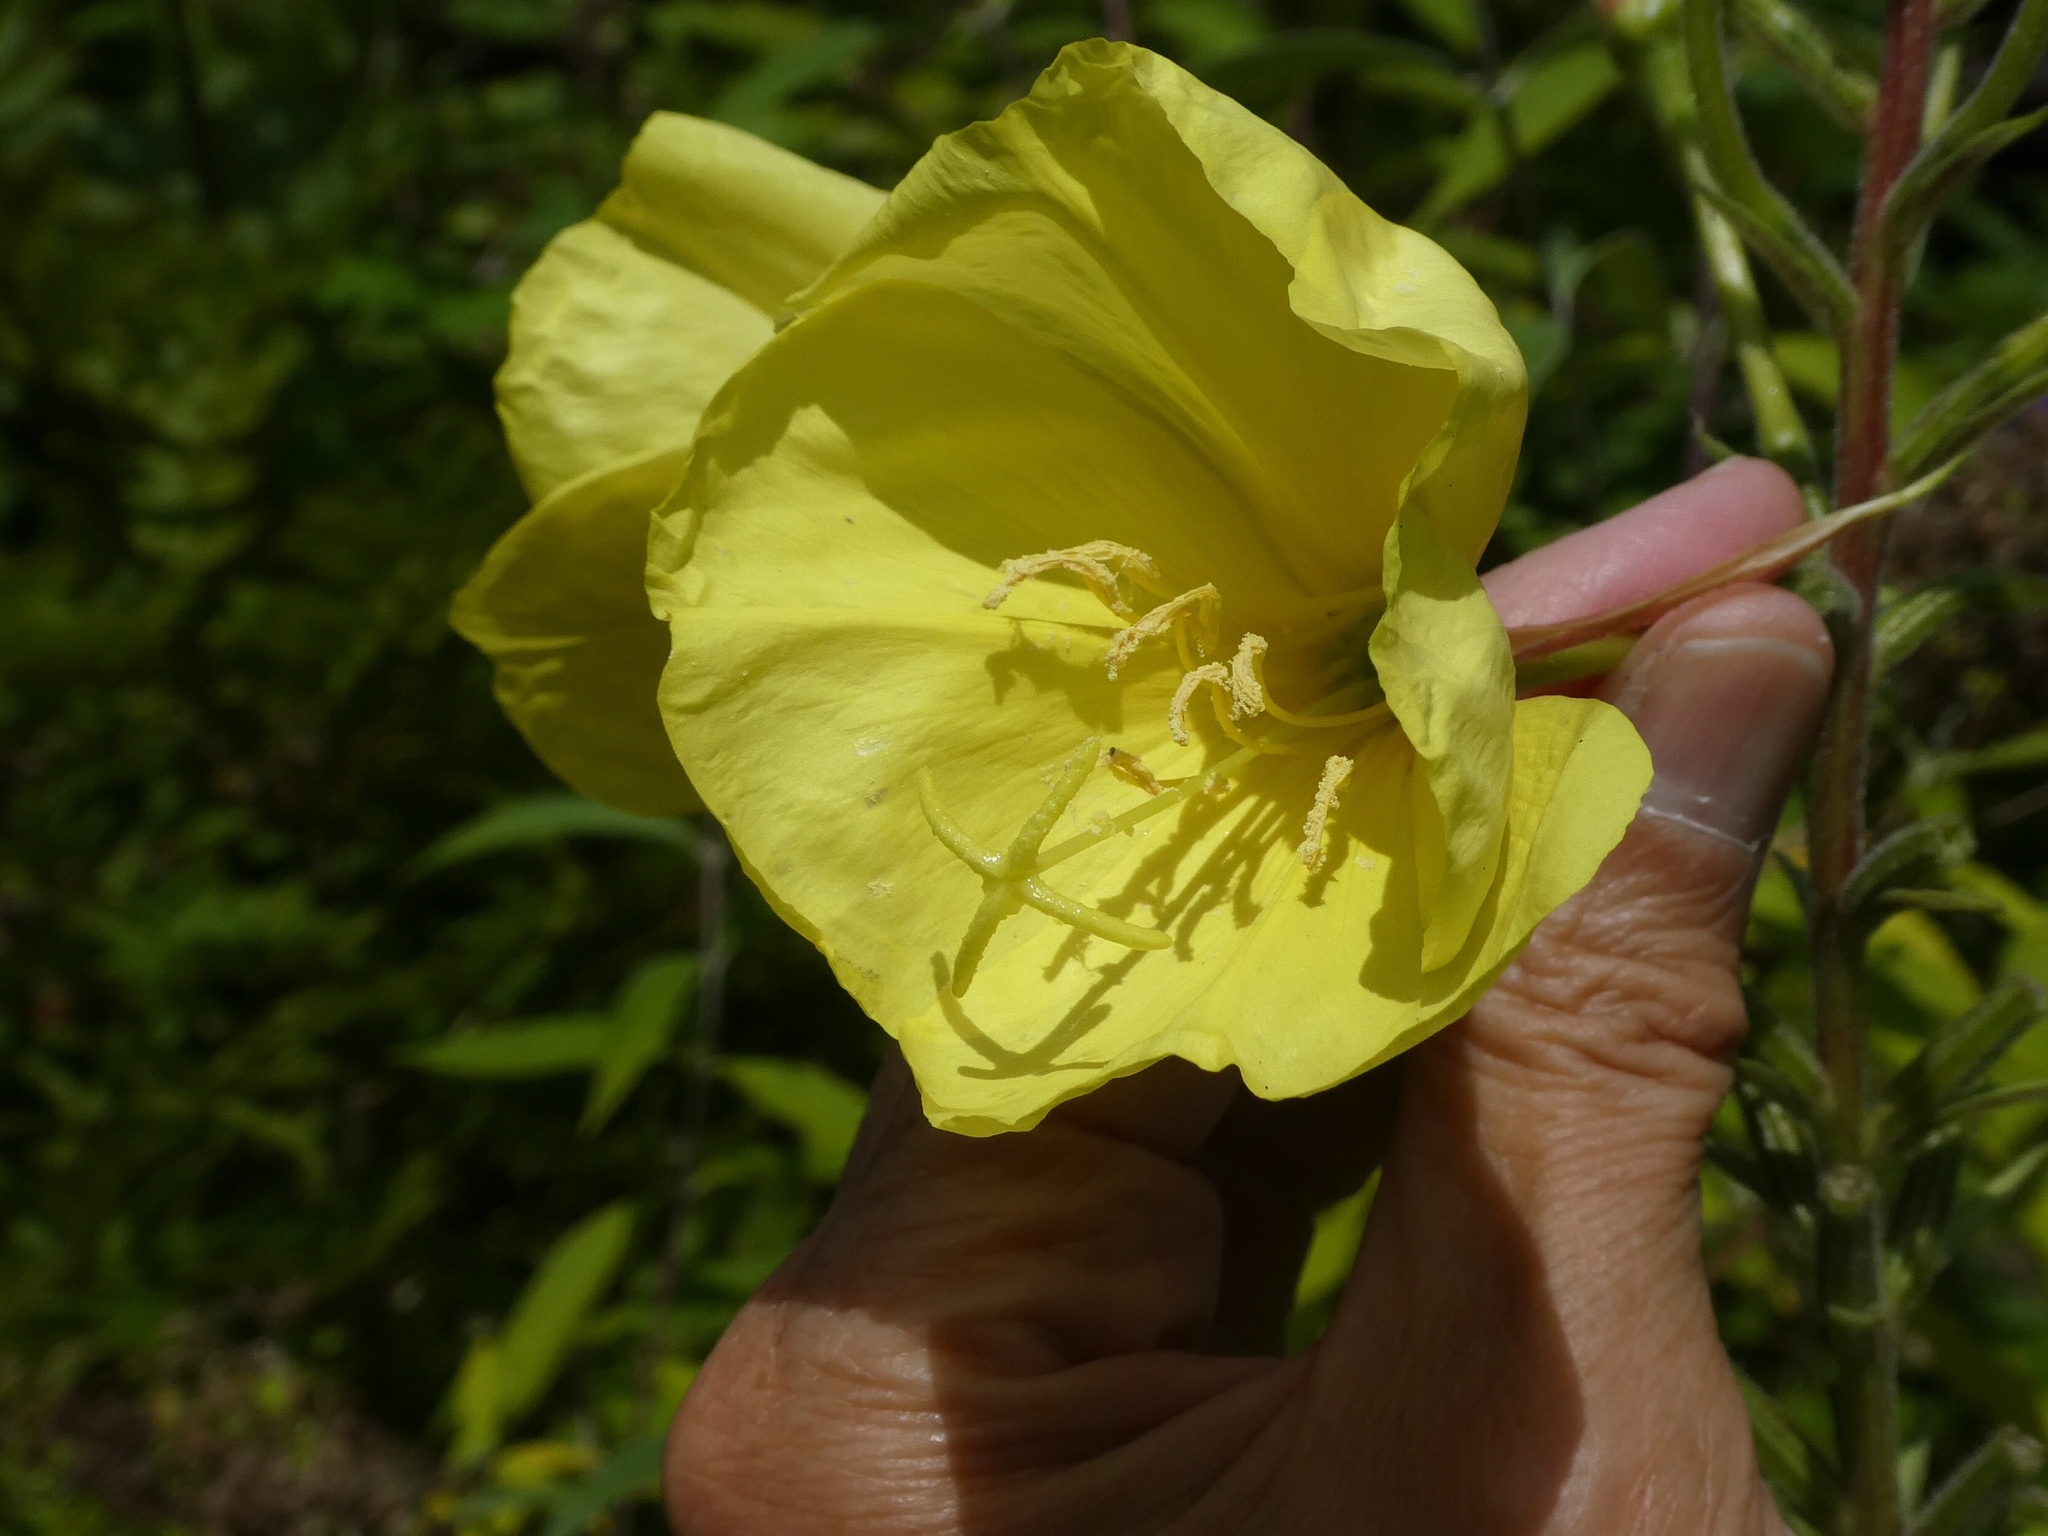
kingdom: Plantae
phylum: Tracheophyta
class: Magnoliopsida
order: Myrtales
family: Onagraceae
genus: Oenothera
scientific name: Oenothera glazioviana
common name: Large-flowered evening-primrose
